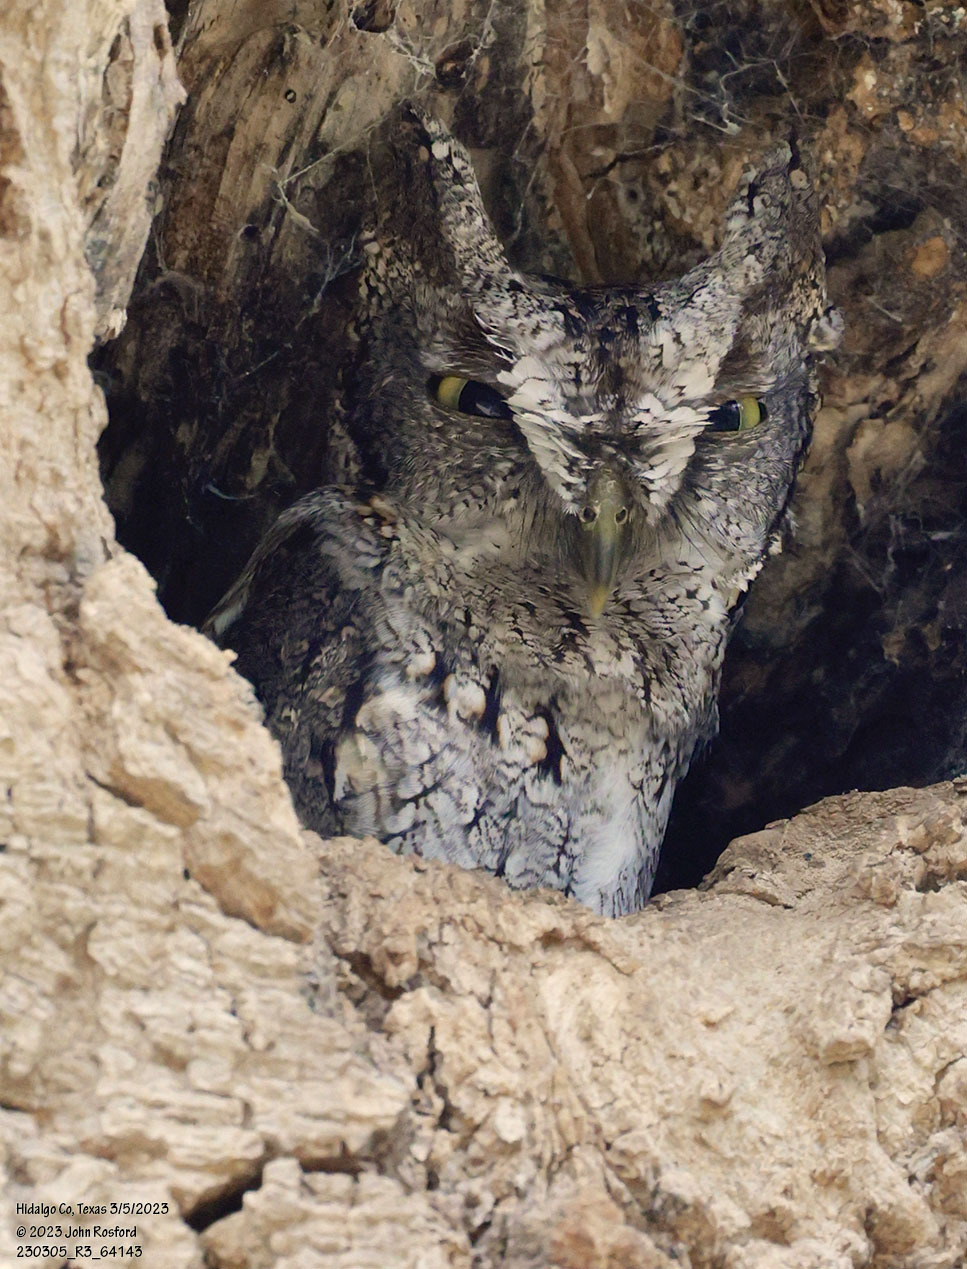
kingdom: Animalia
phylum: Chordata
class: Aves
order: Strigiformes
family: Strigidae
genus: Megascops
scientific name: Megascops asio
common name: Eastern screech-owl
